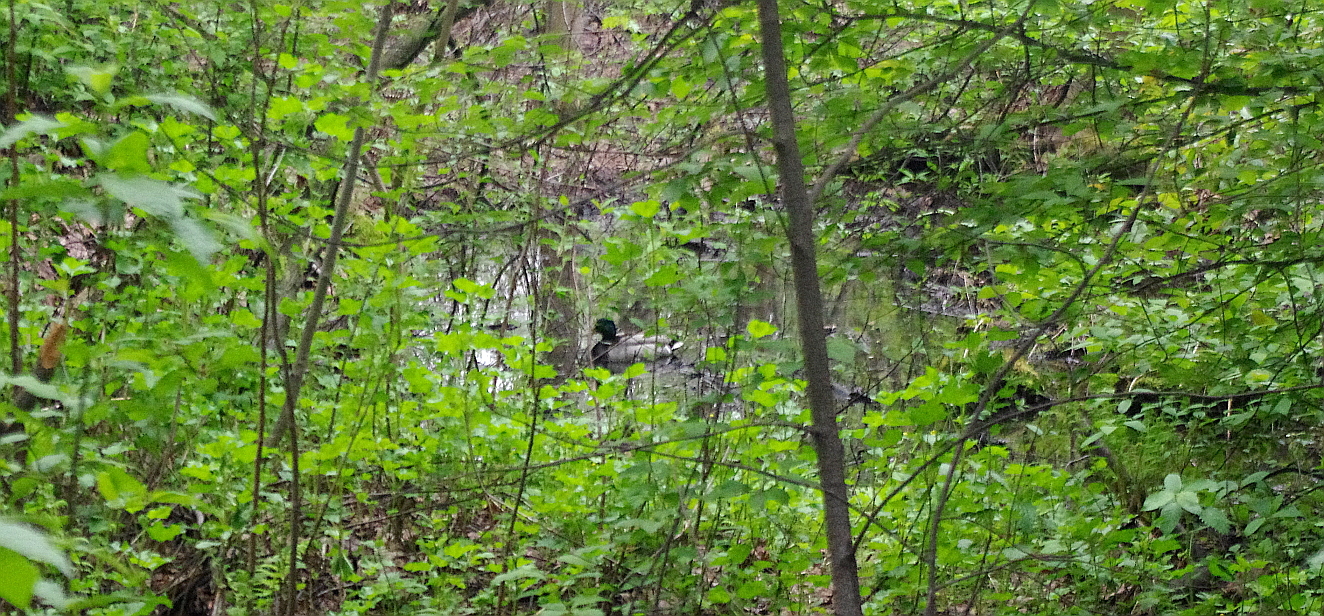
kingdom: Animalia
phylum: Chordata
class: Aves
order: Anseriformes
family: Anatidae
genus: Anas
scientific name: Anas platyrhynchos
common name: Mallard
